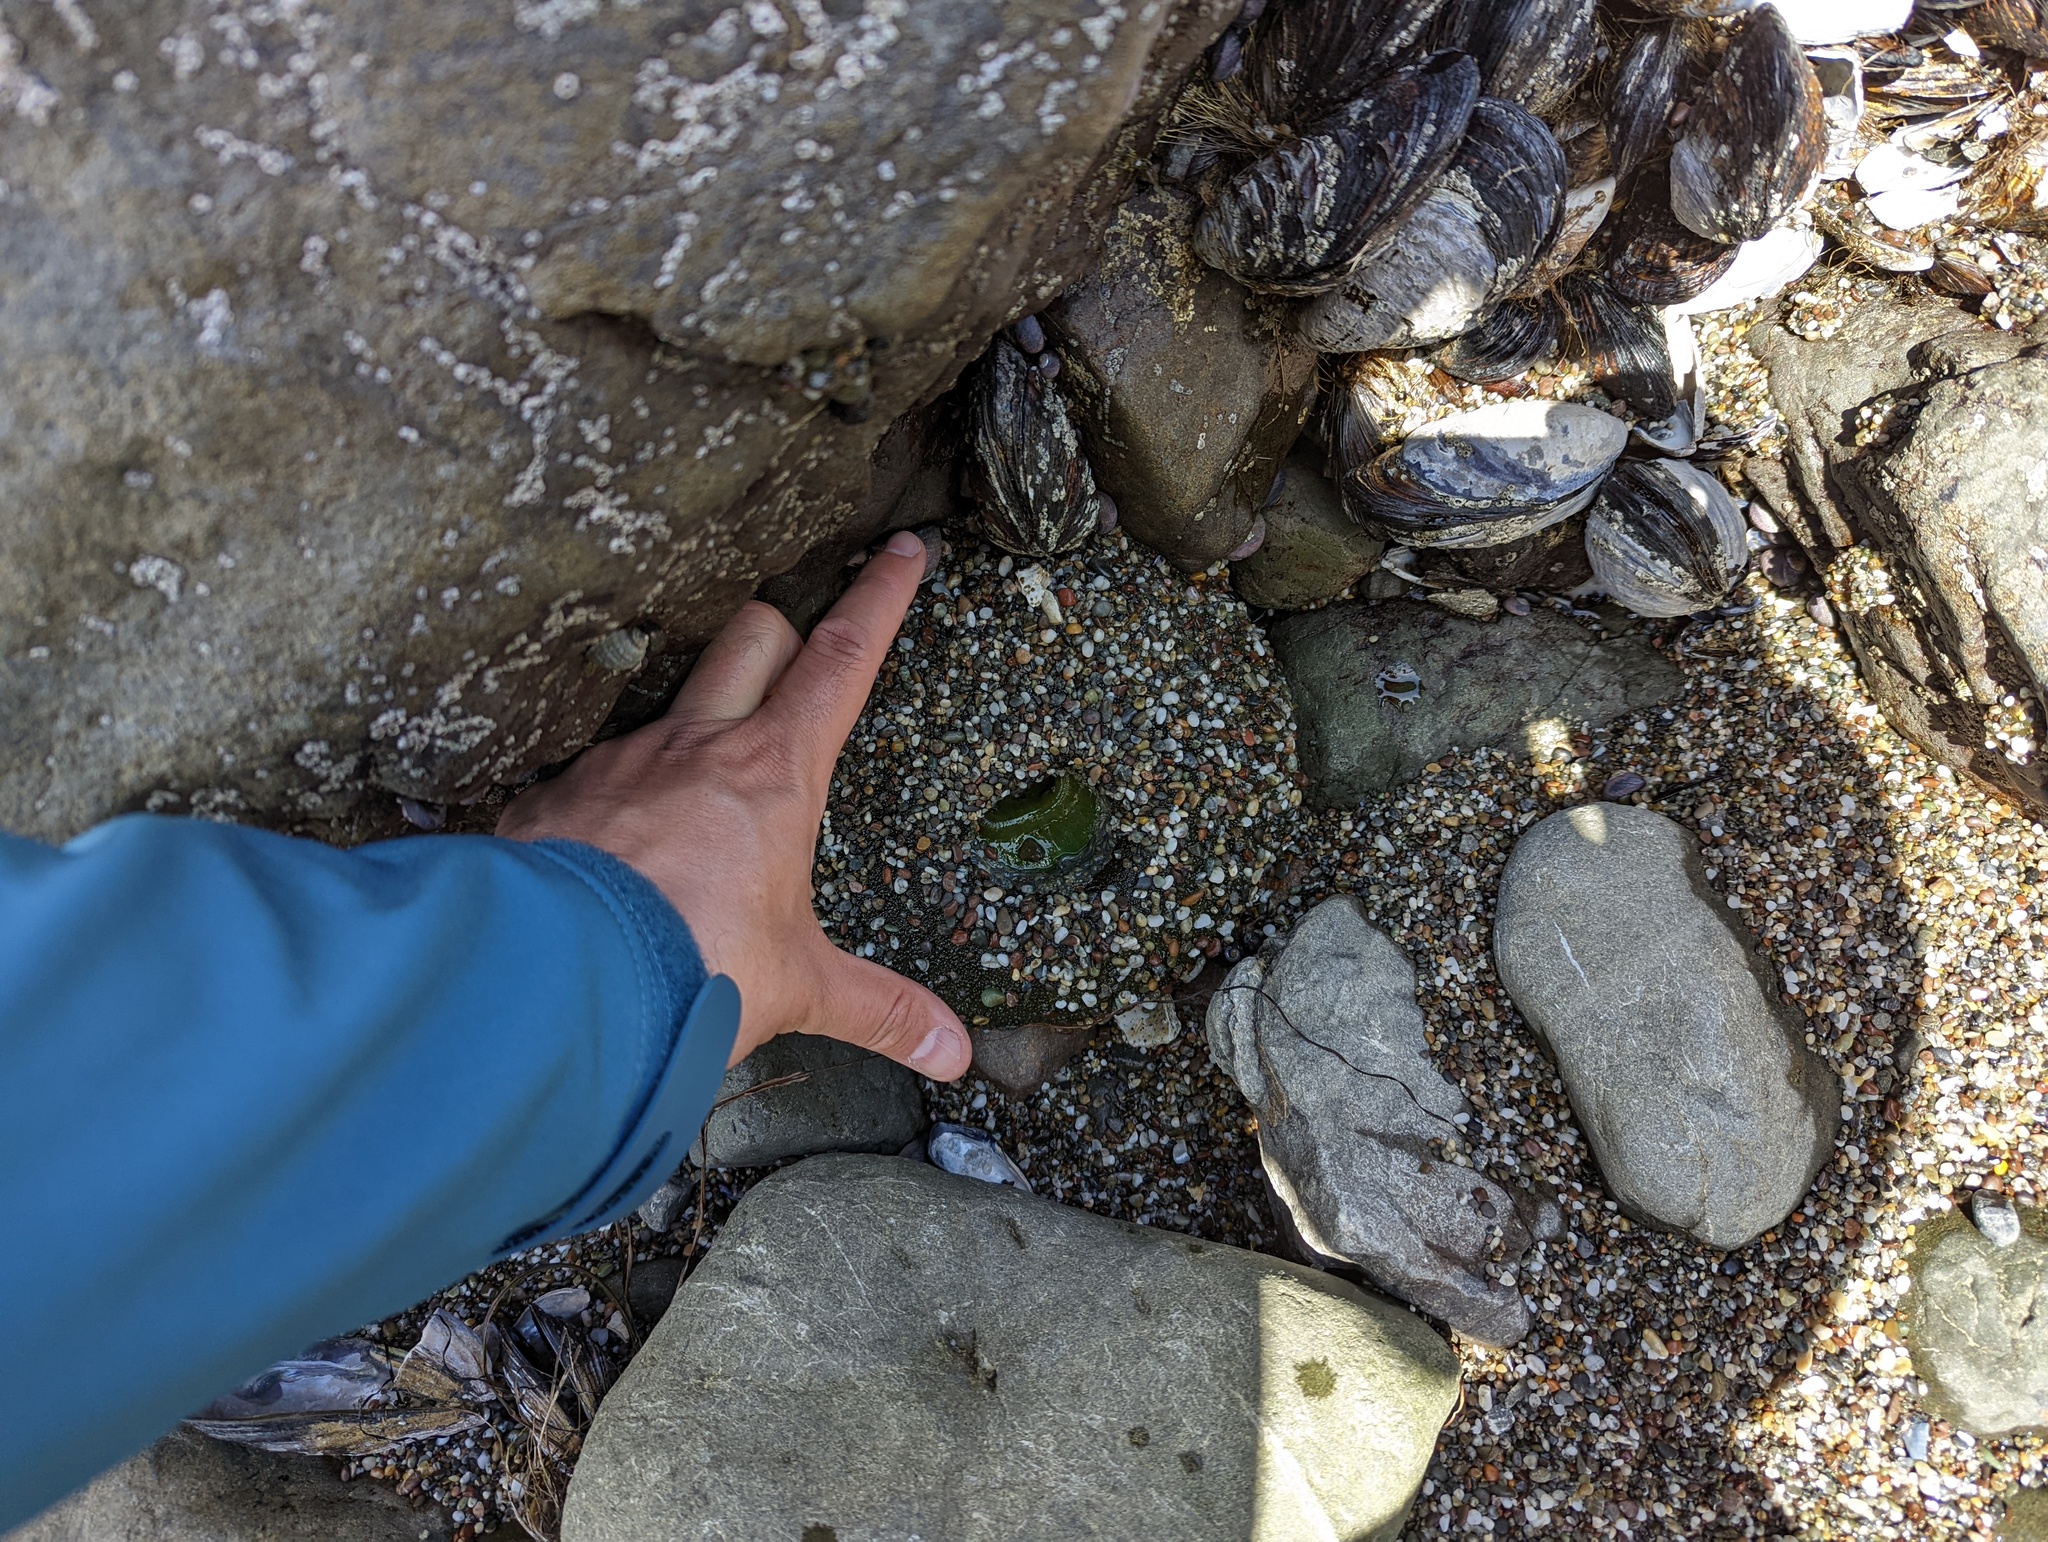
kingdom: Animalia
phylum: Cnidaria
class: Anthozoa
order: Actiniaria
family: Actiniidae
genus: Anthopleura
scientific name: Anthopleura xanthogrammica
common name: Giant green anemone
